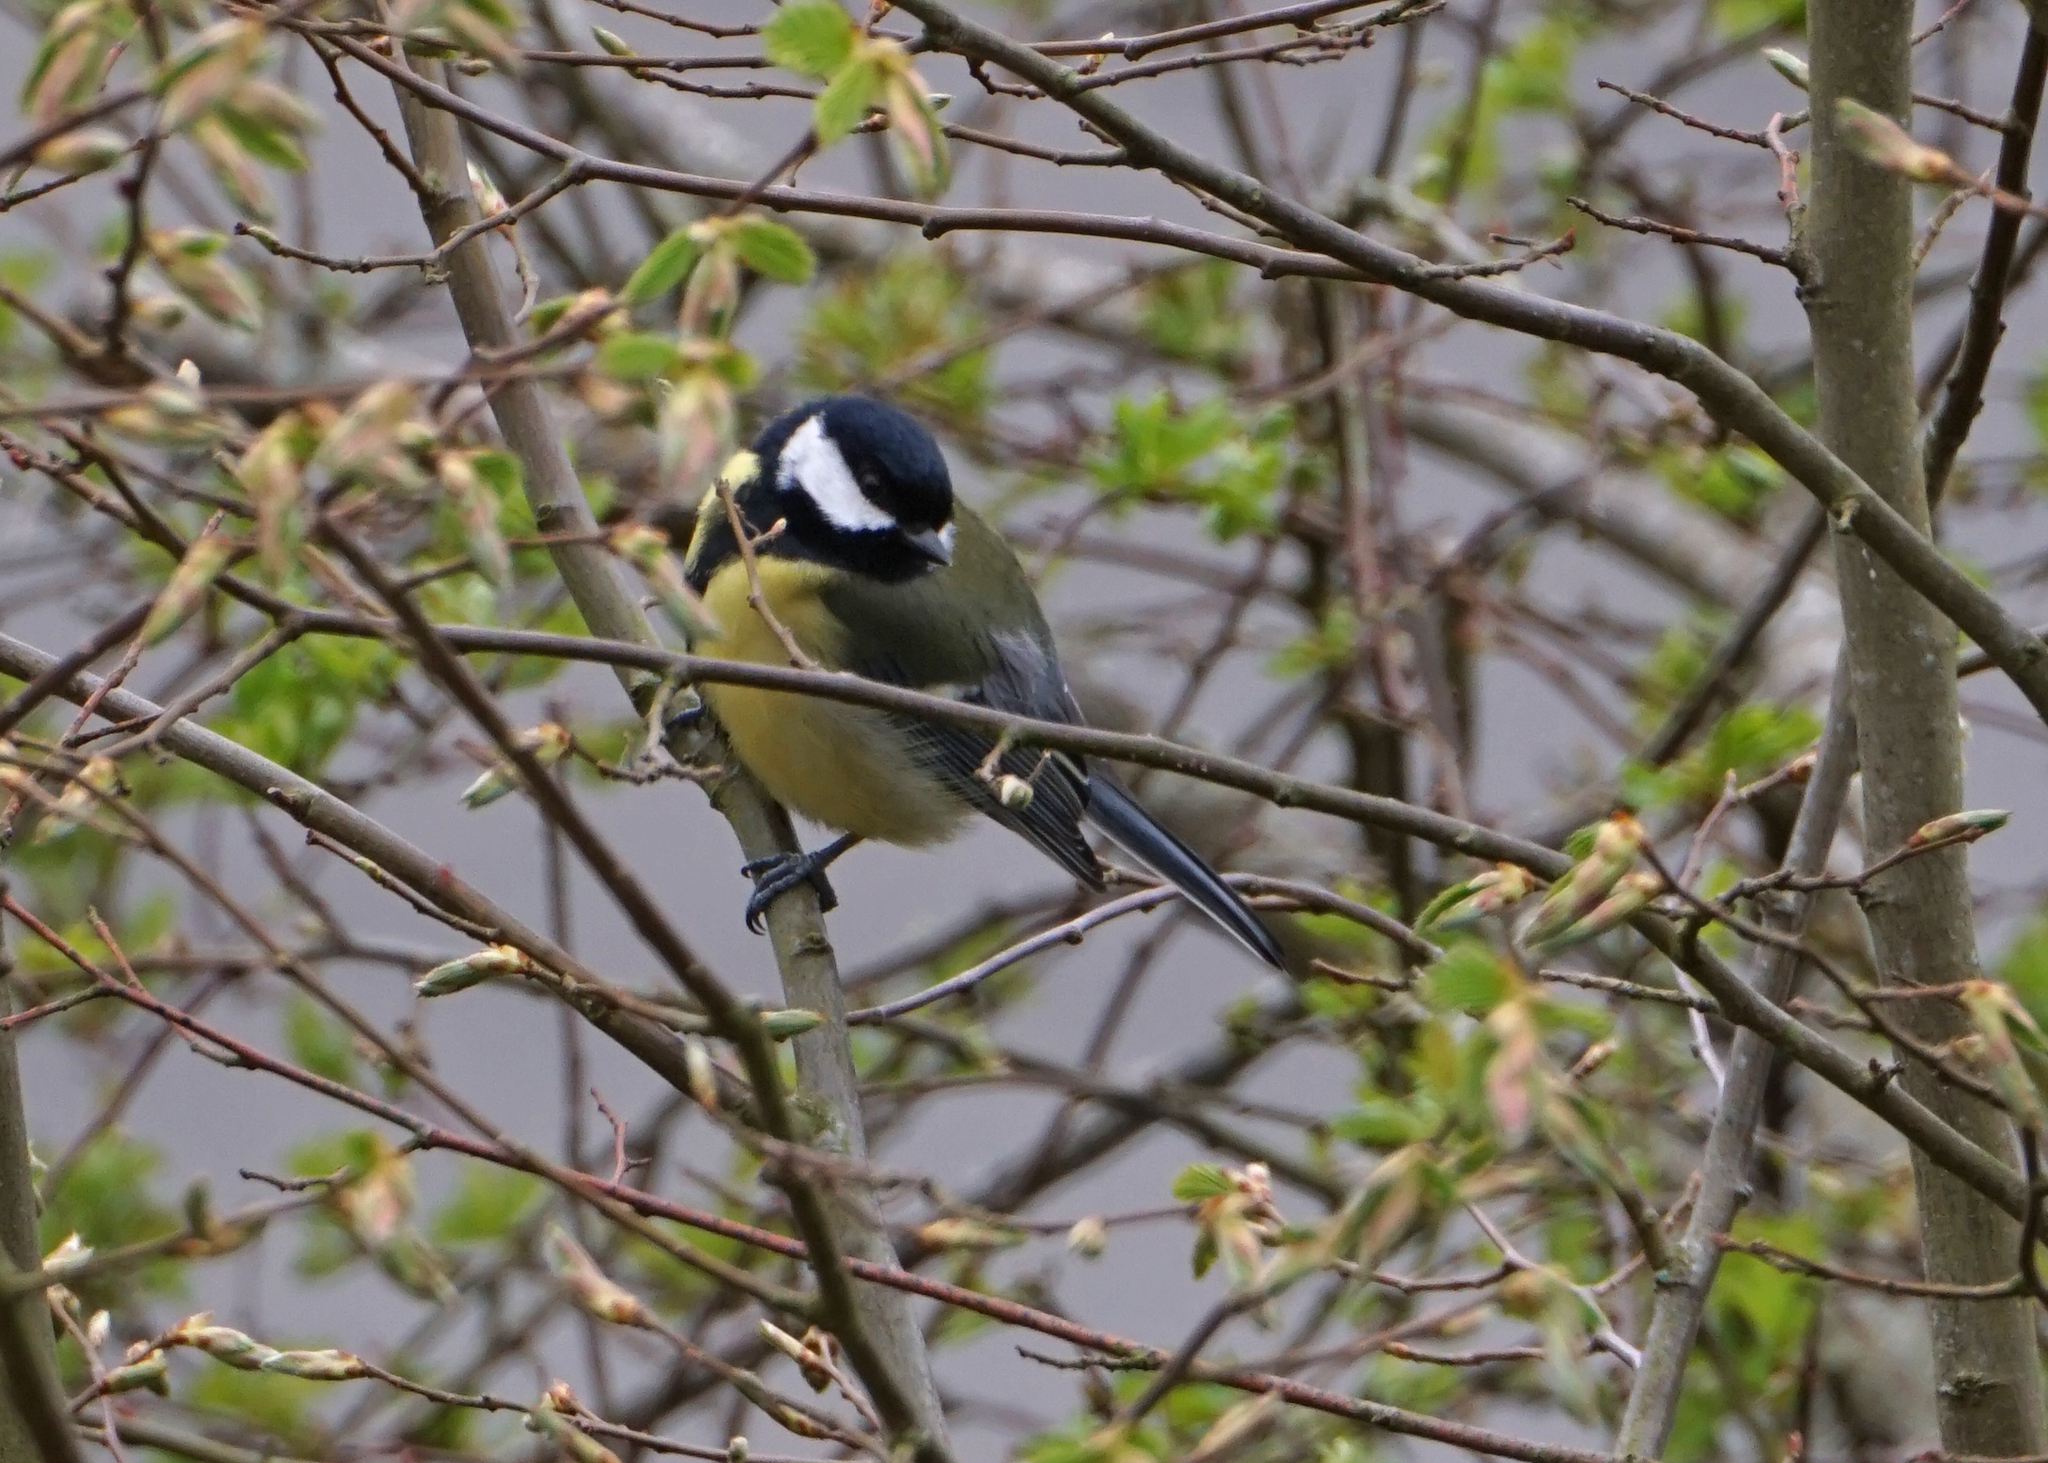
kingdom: Animalia
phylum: Chordata
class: Aves
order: Passeriformes
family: Paridae
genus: Parus
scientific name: Parus major
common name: Great tit
